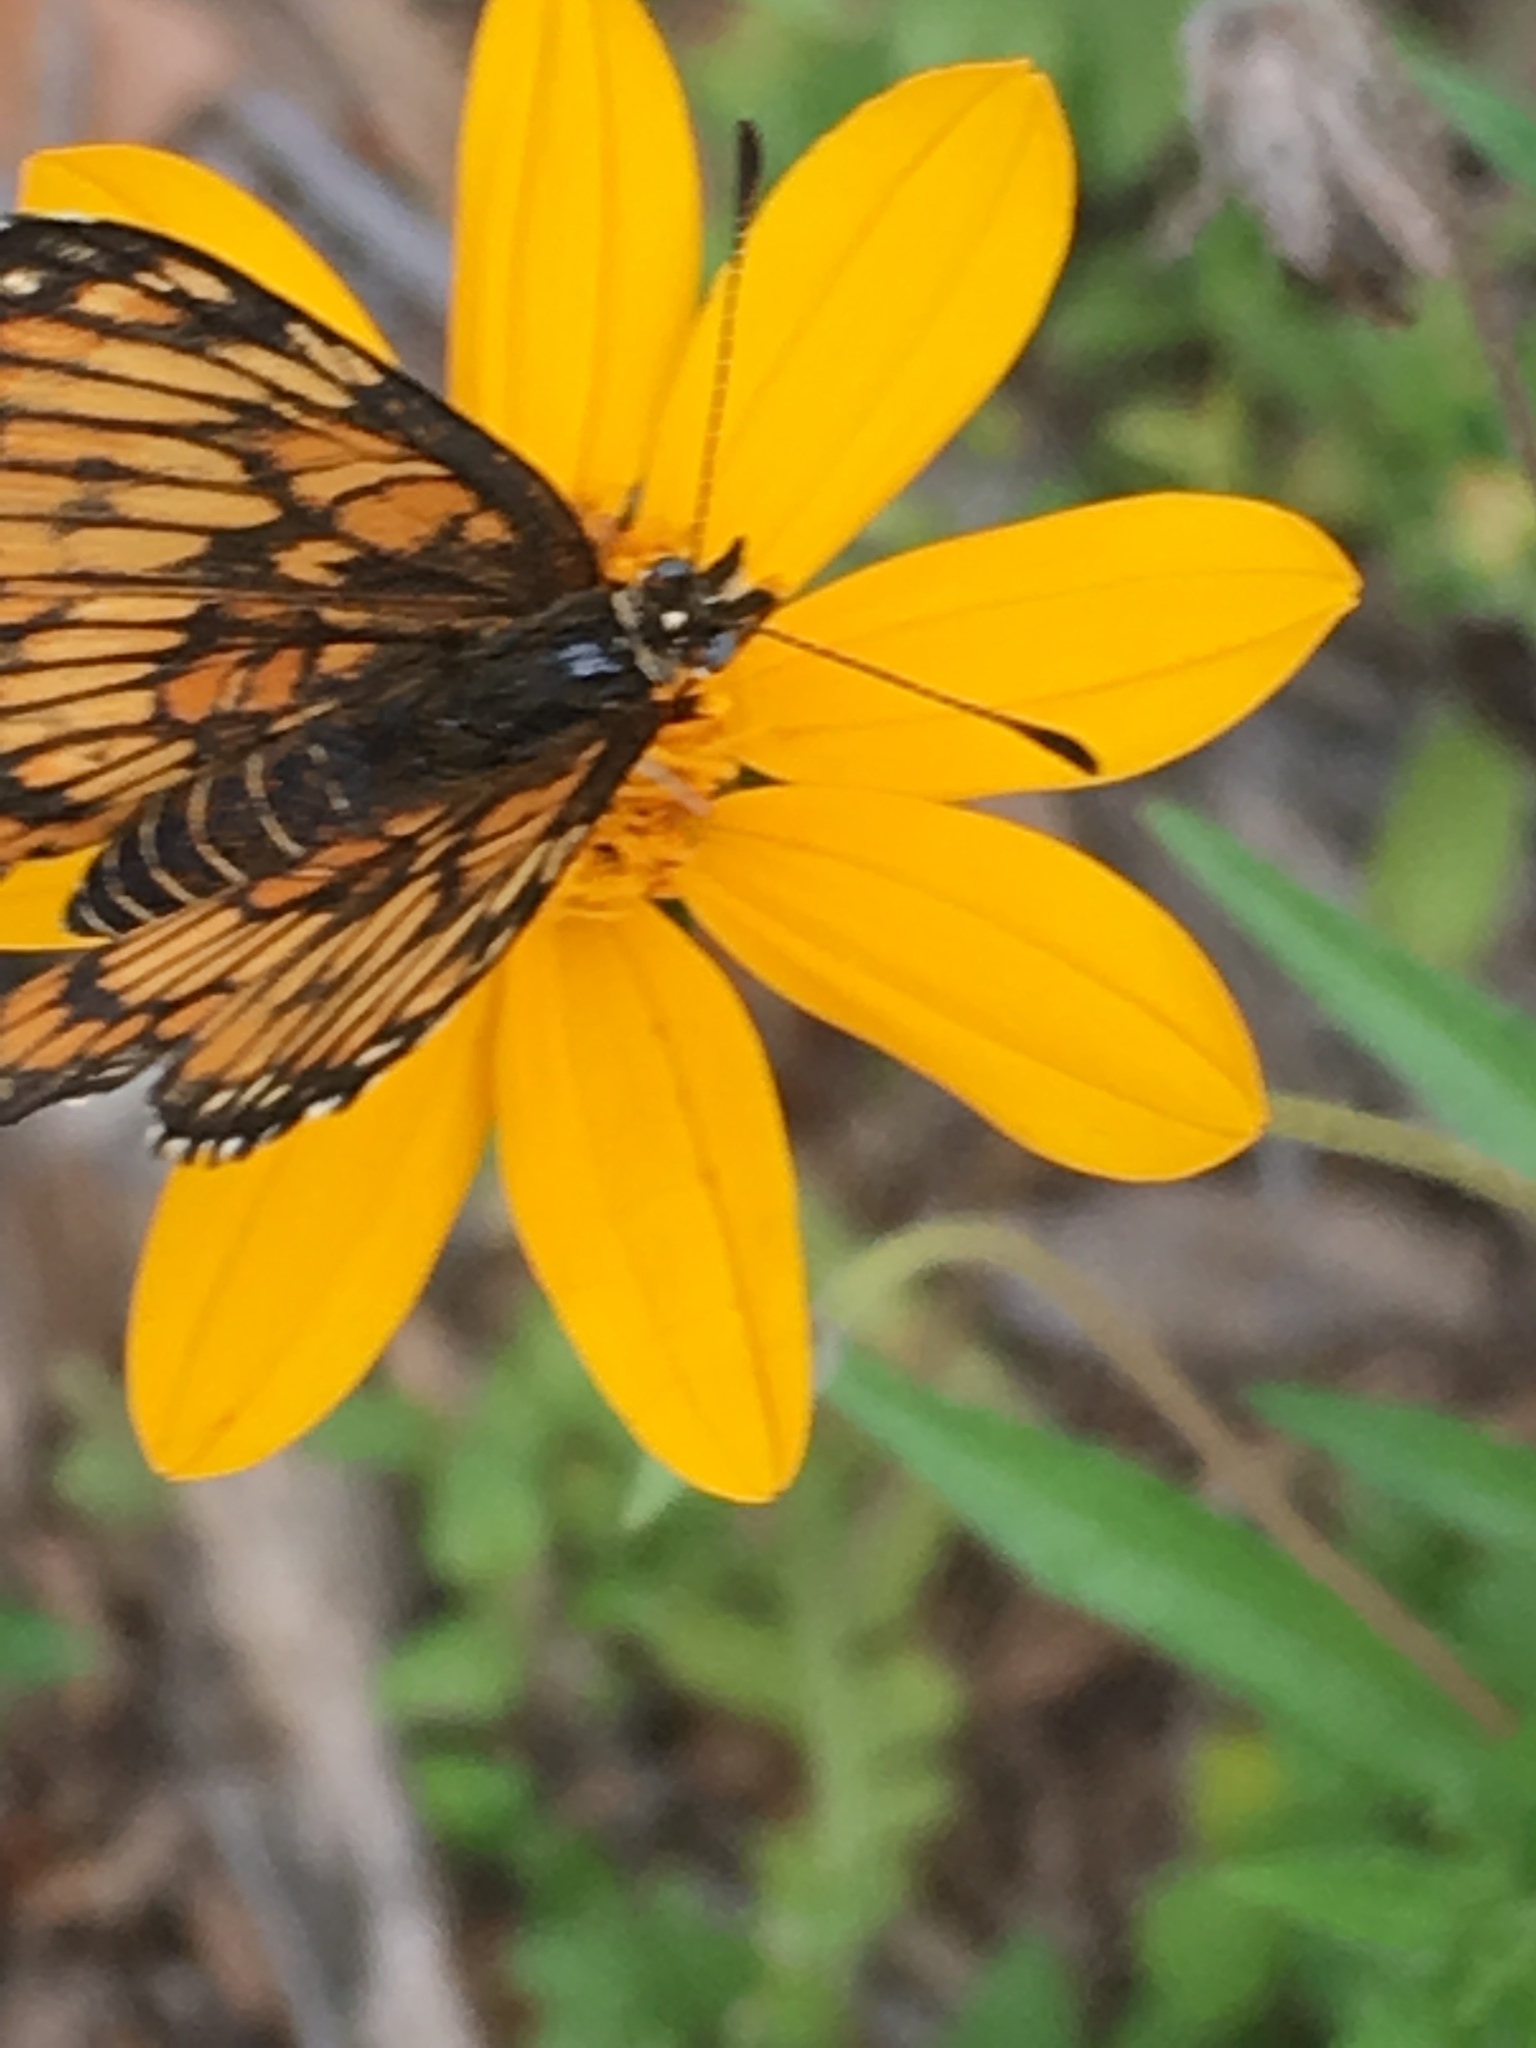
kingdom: Animalia
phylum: Arthropoda
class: Insecta
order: Lepidoptera
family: Nymphalidae
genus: Thessalia
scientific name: Thessalia theona
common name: Nymphalid moth
